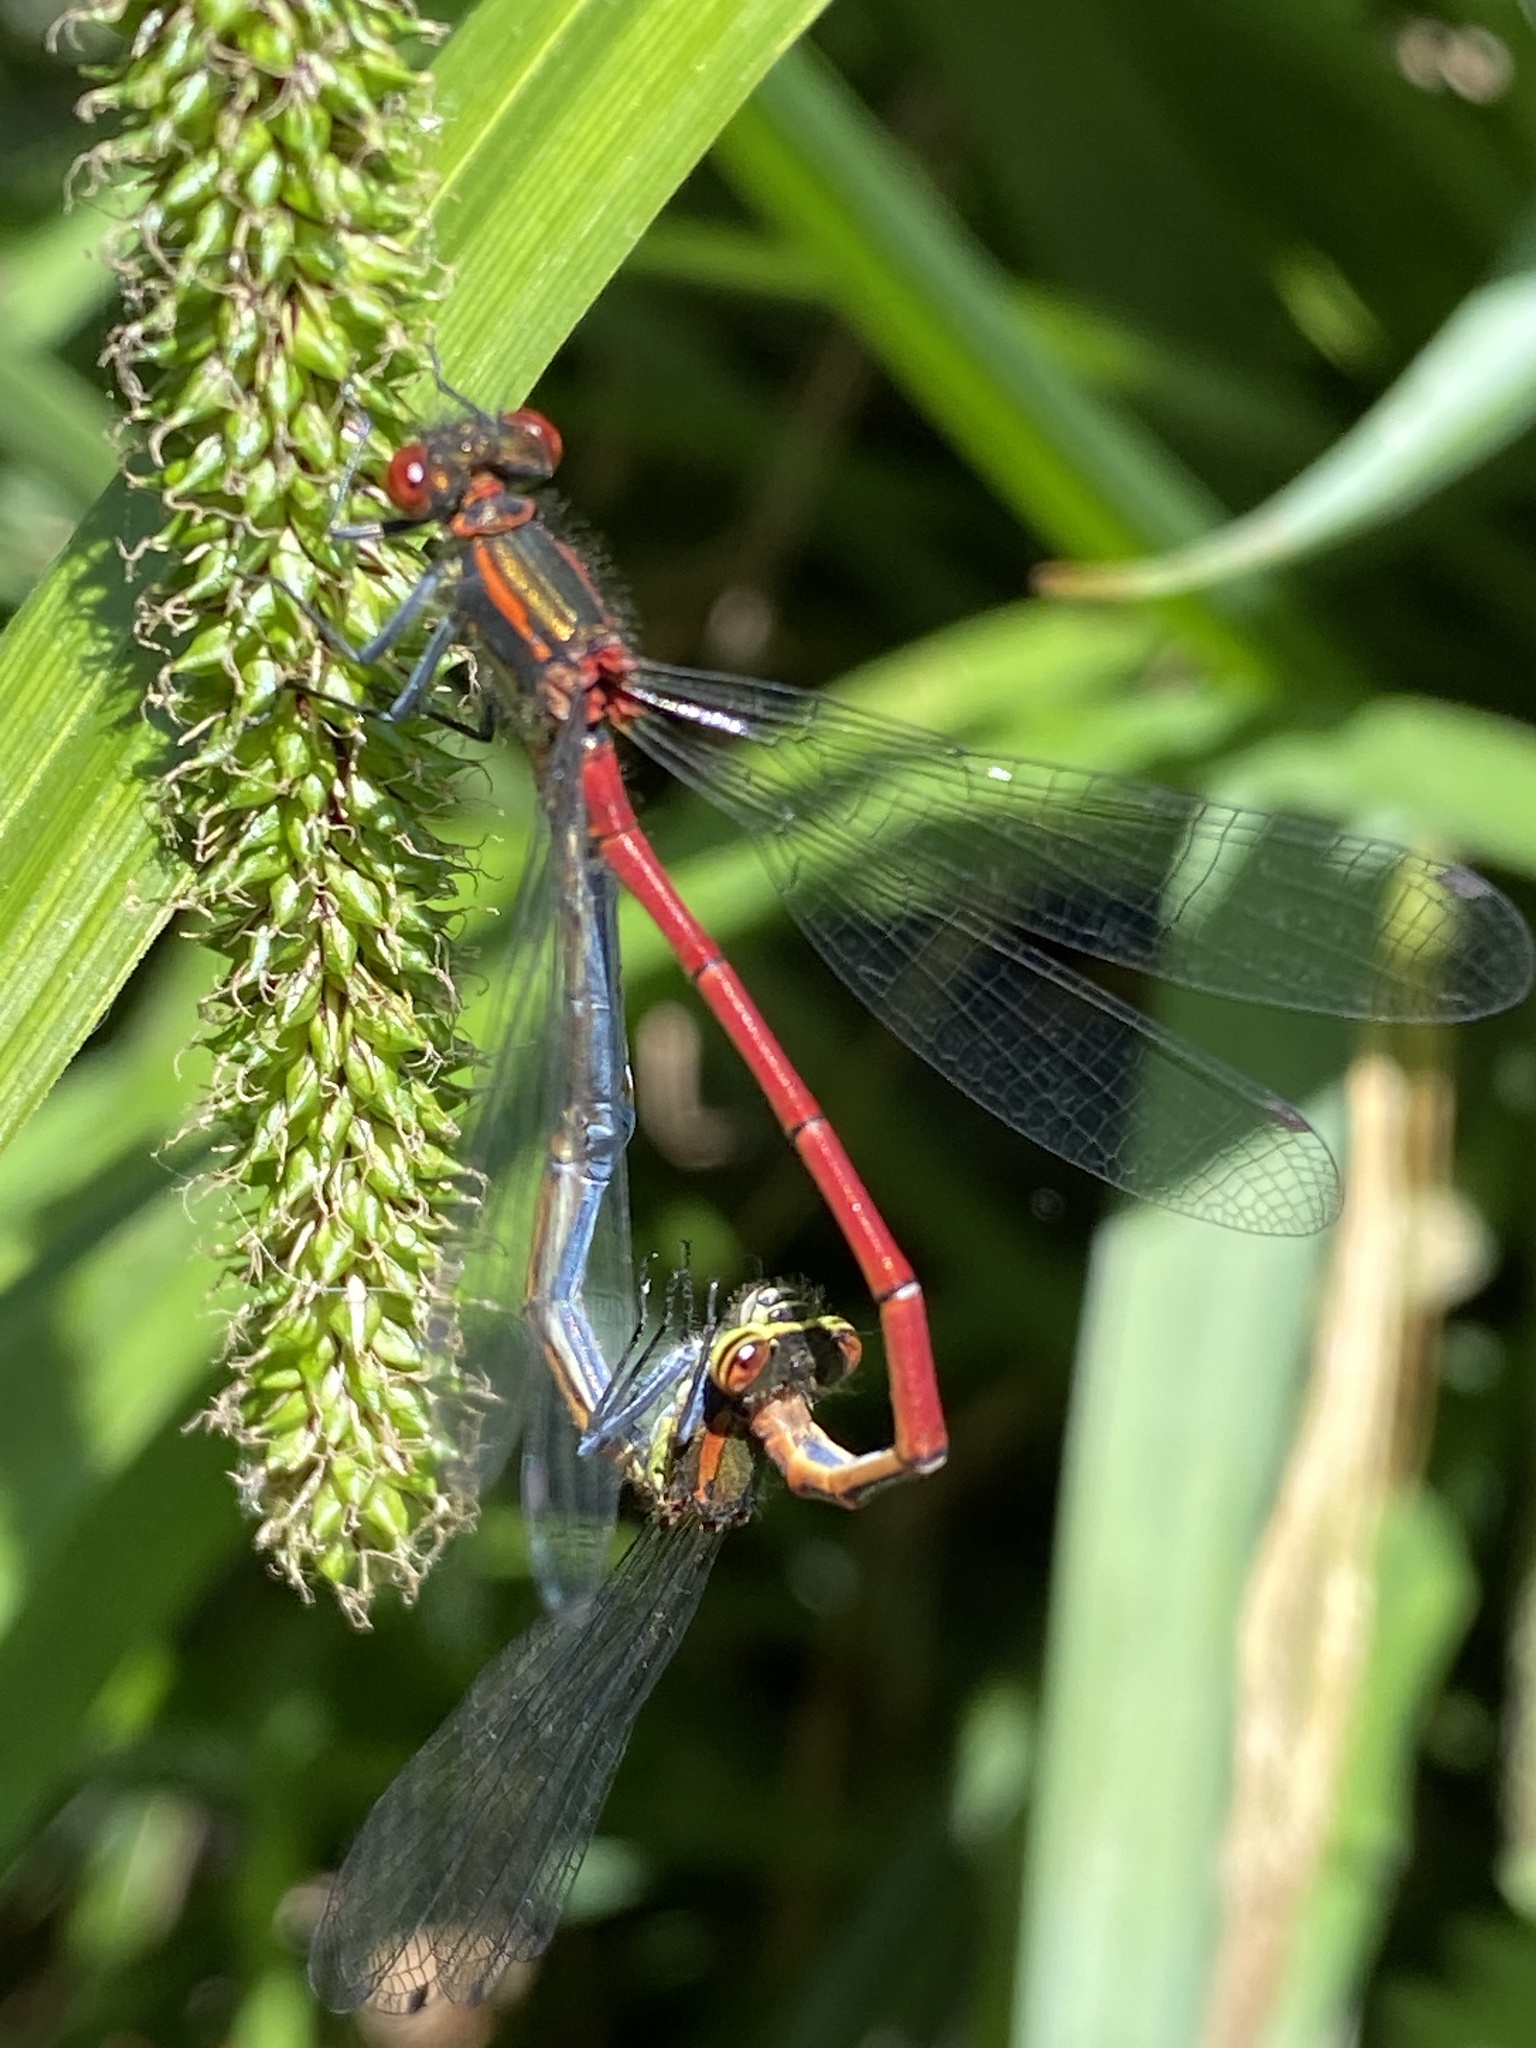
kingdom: Animalia
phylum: Arthropoda
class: Insecta
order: Odonata
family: Coenagrionidae
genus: Pyrrhosoma
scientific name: Pyrrhosoma nymphula
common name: Large red damsel
